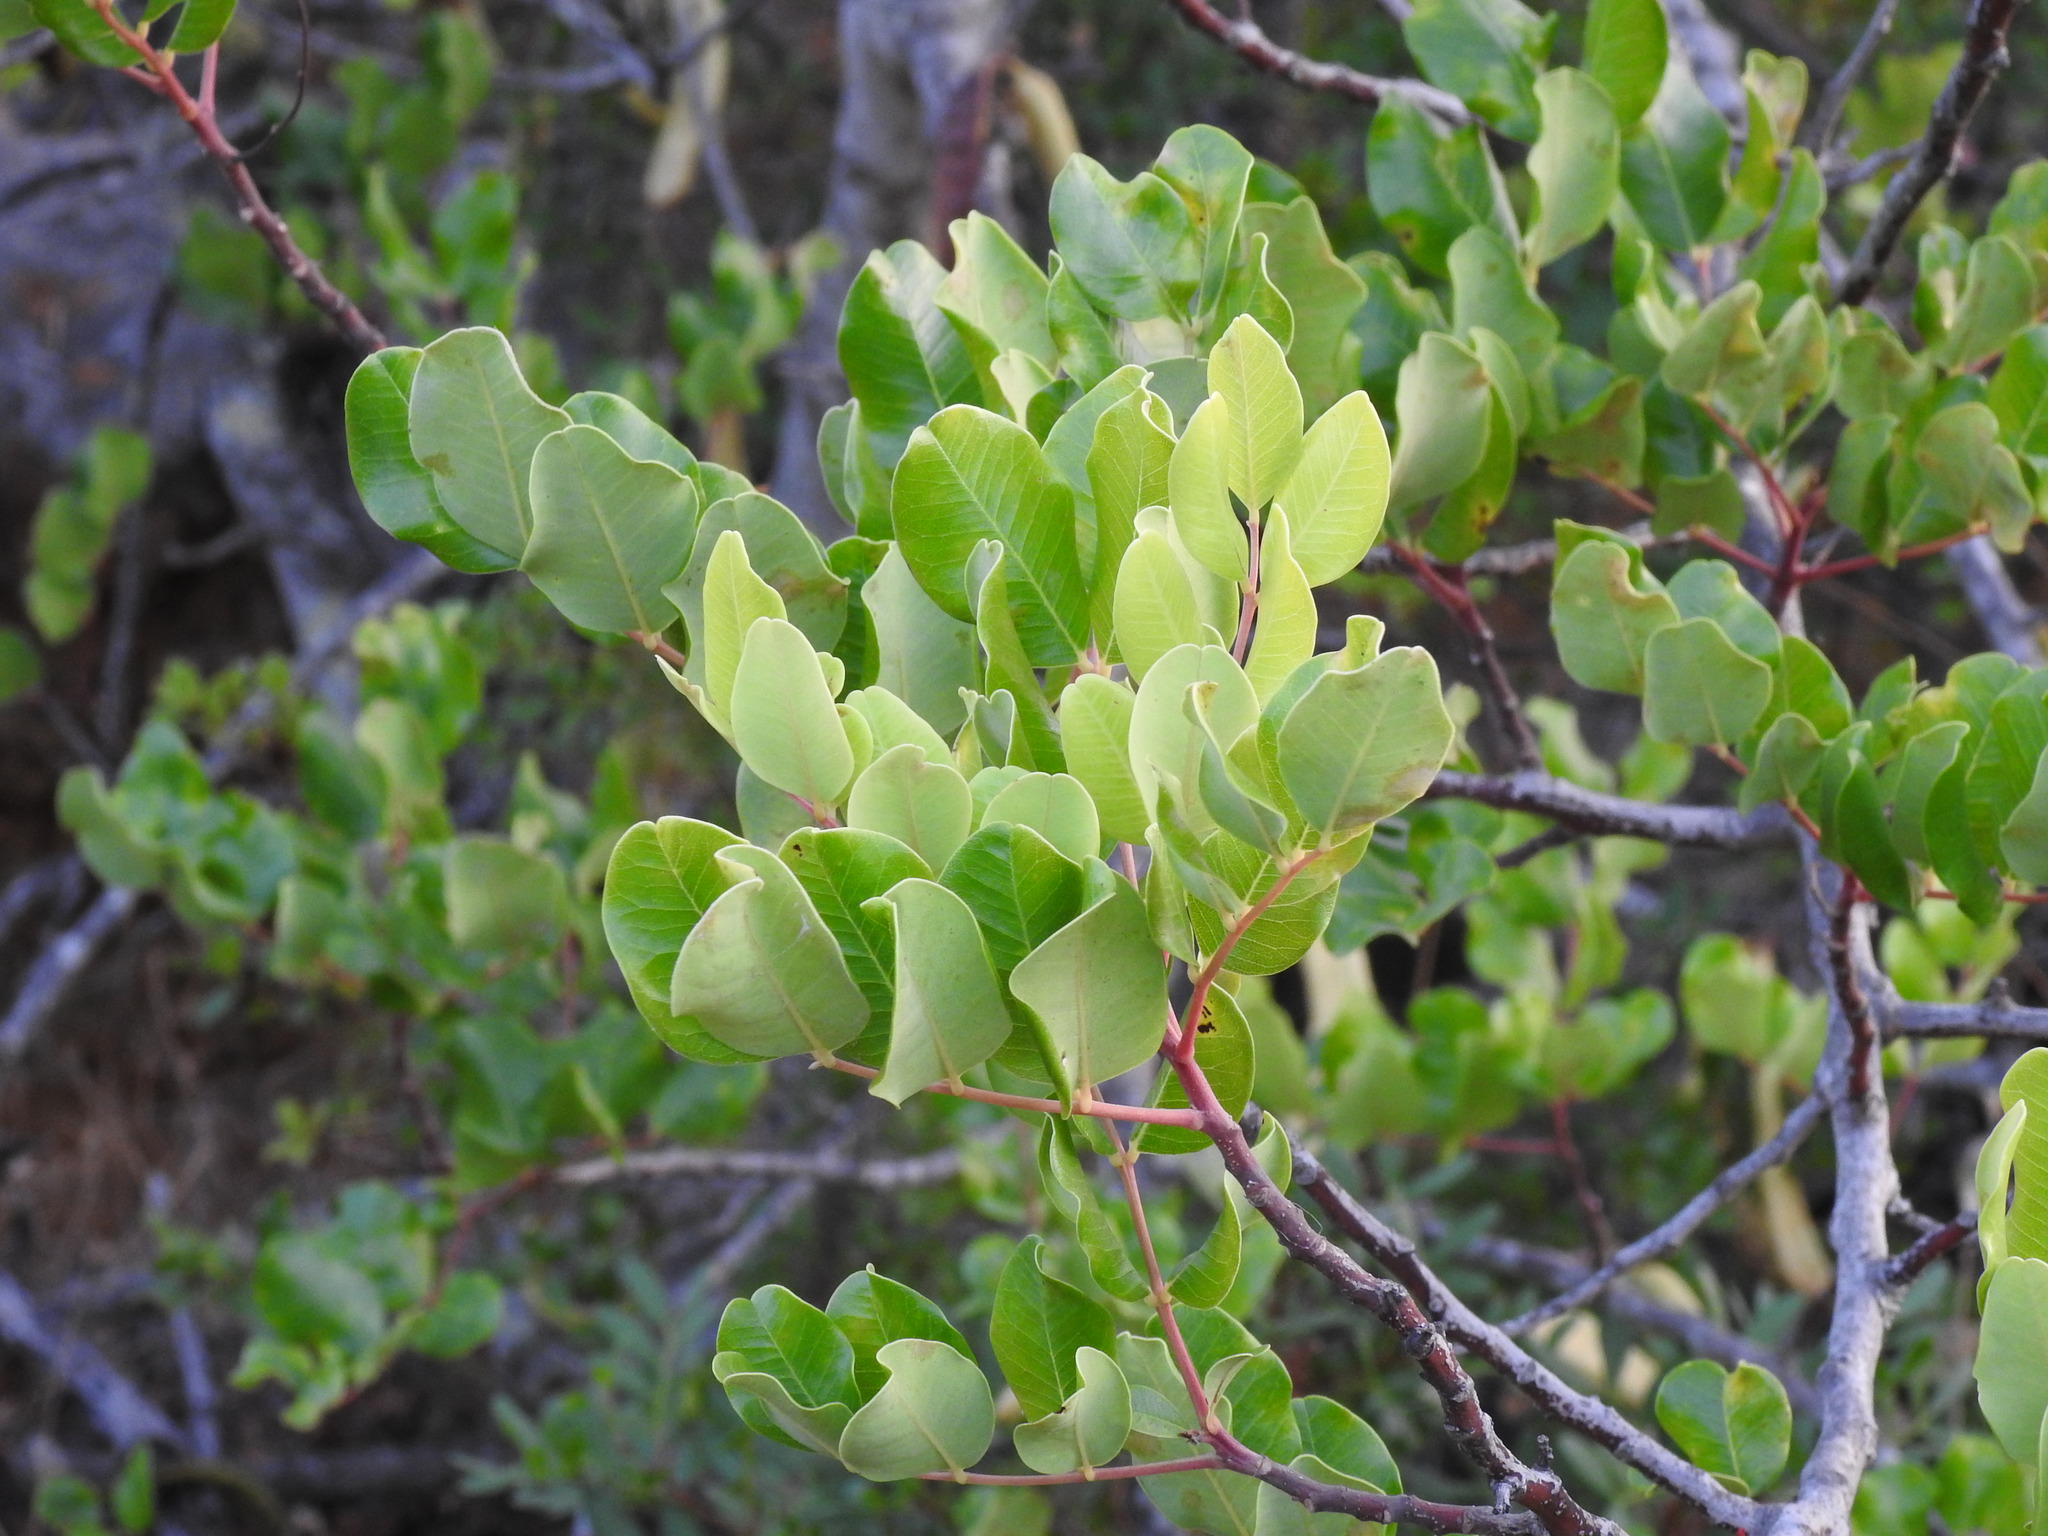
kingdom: Plantae
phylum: Tracheophyta
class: Magnoliopsida
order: Fabales
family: Fabaceae
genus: Ceratonia
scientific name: Ceratonia siliqua
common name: Carob
